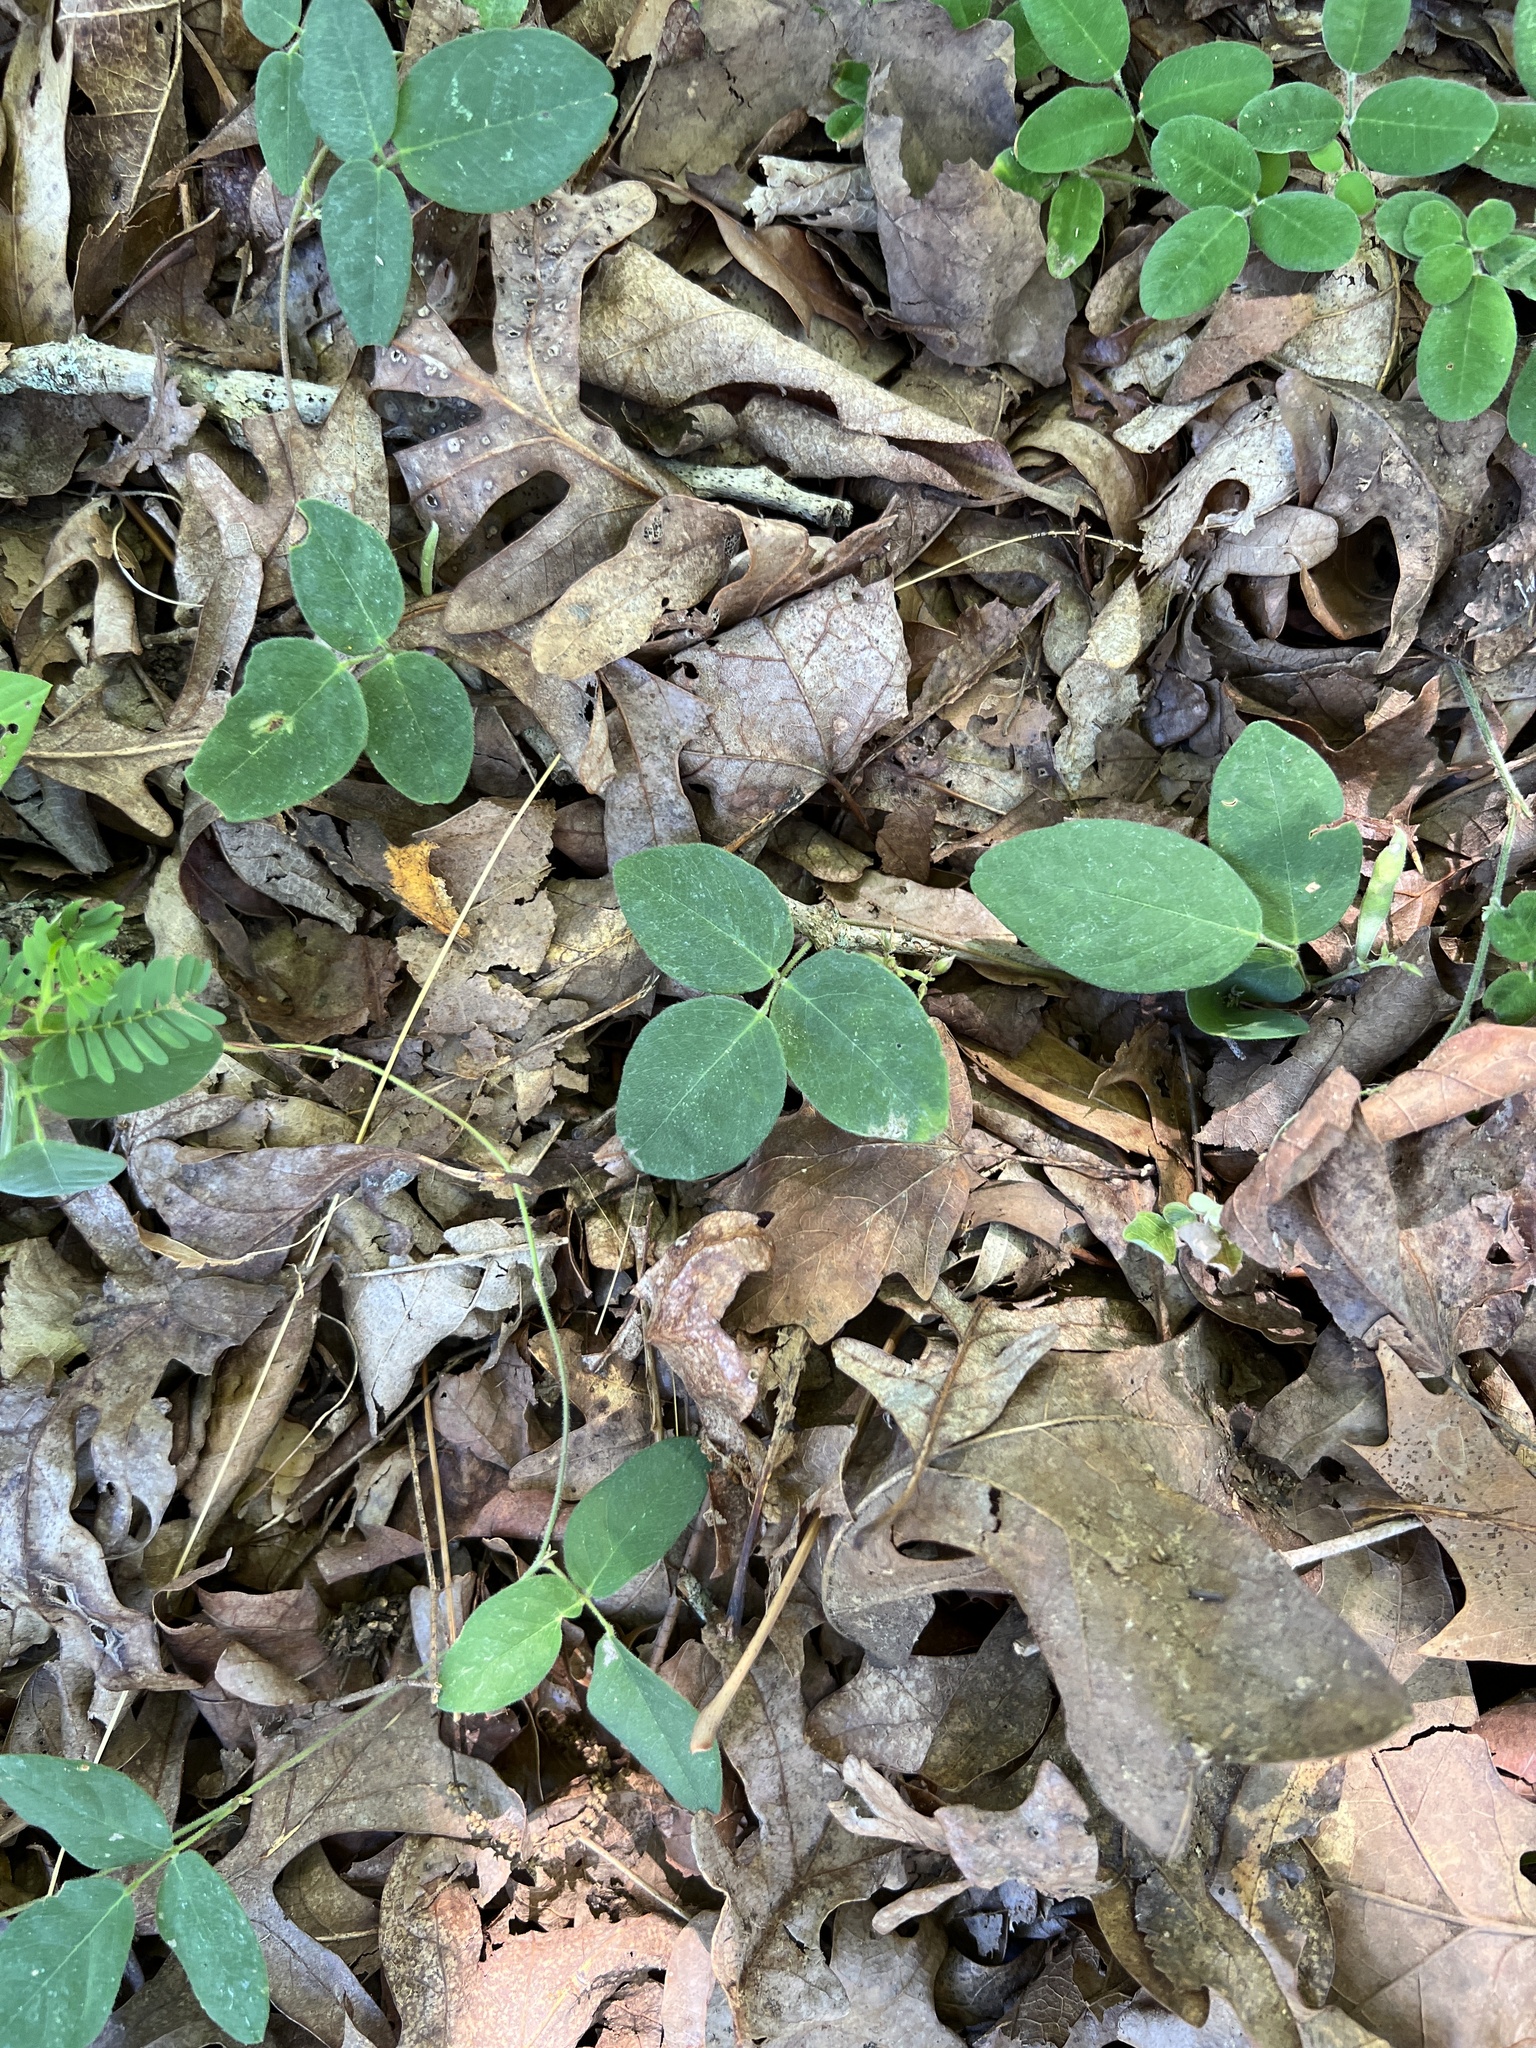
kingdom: Plantae
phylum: Tracheophyta
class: Magnoliopsida
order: Fabales
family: Fabaceae
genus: Galactia
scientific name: Galactia regularis
